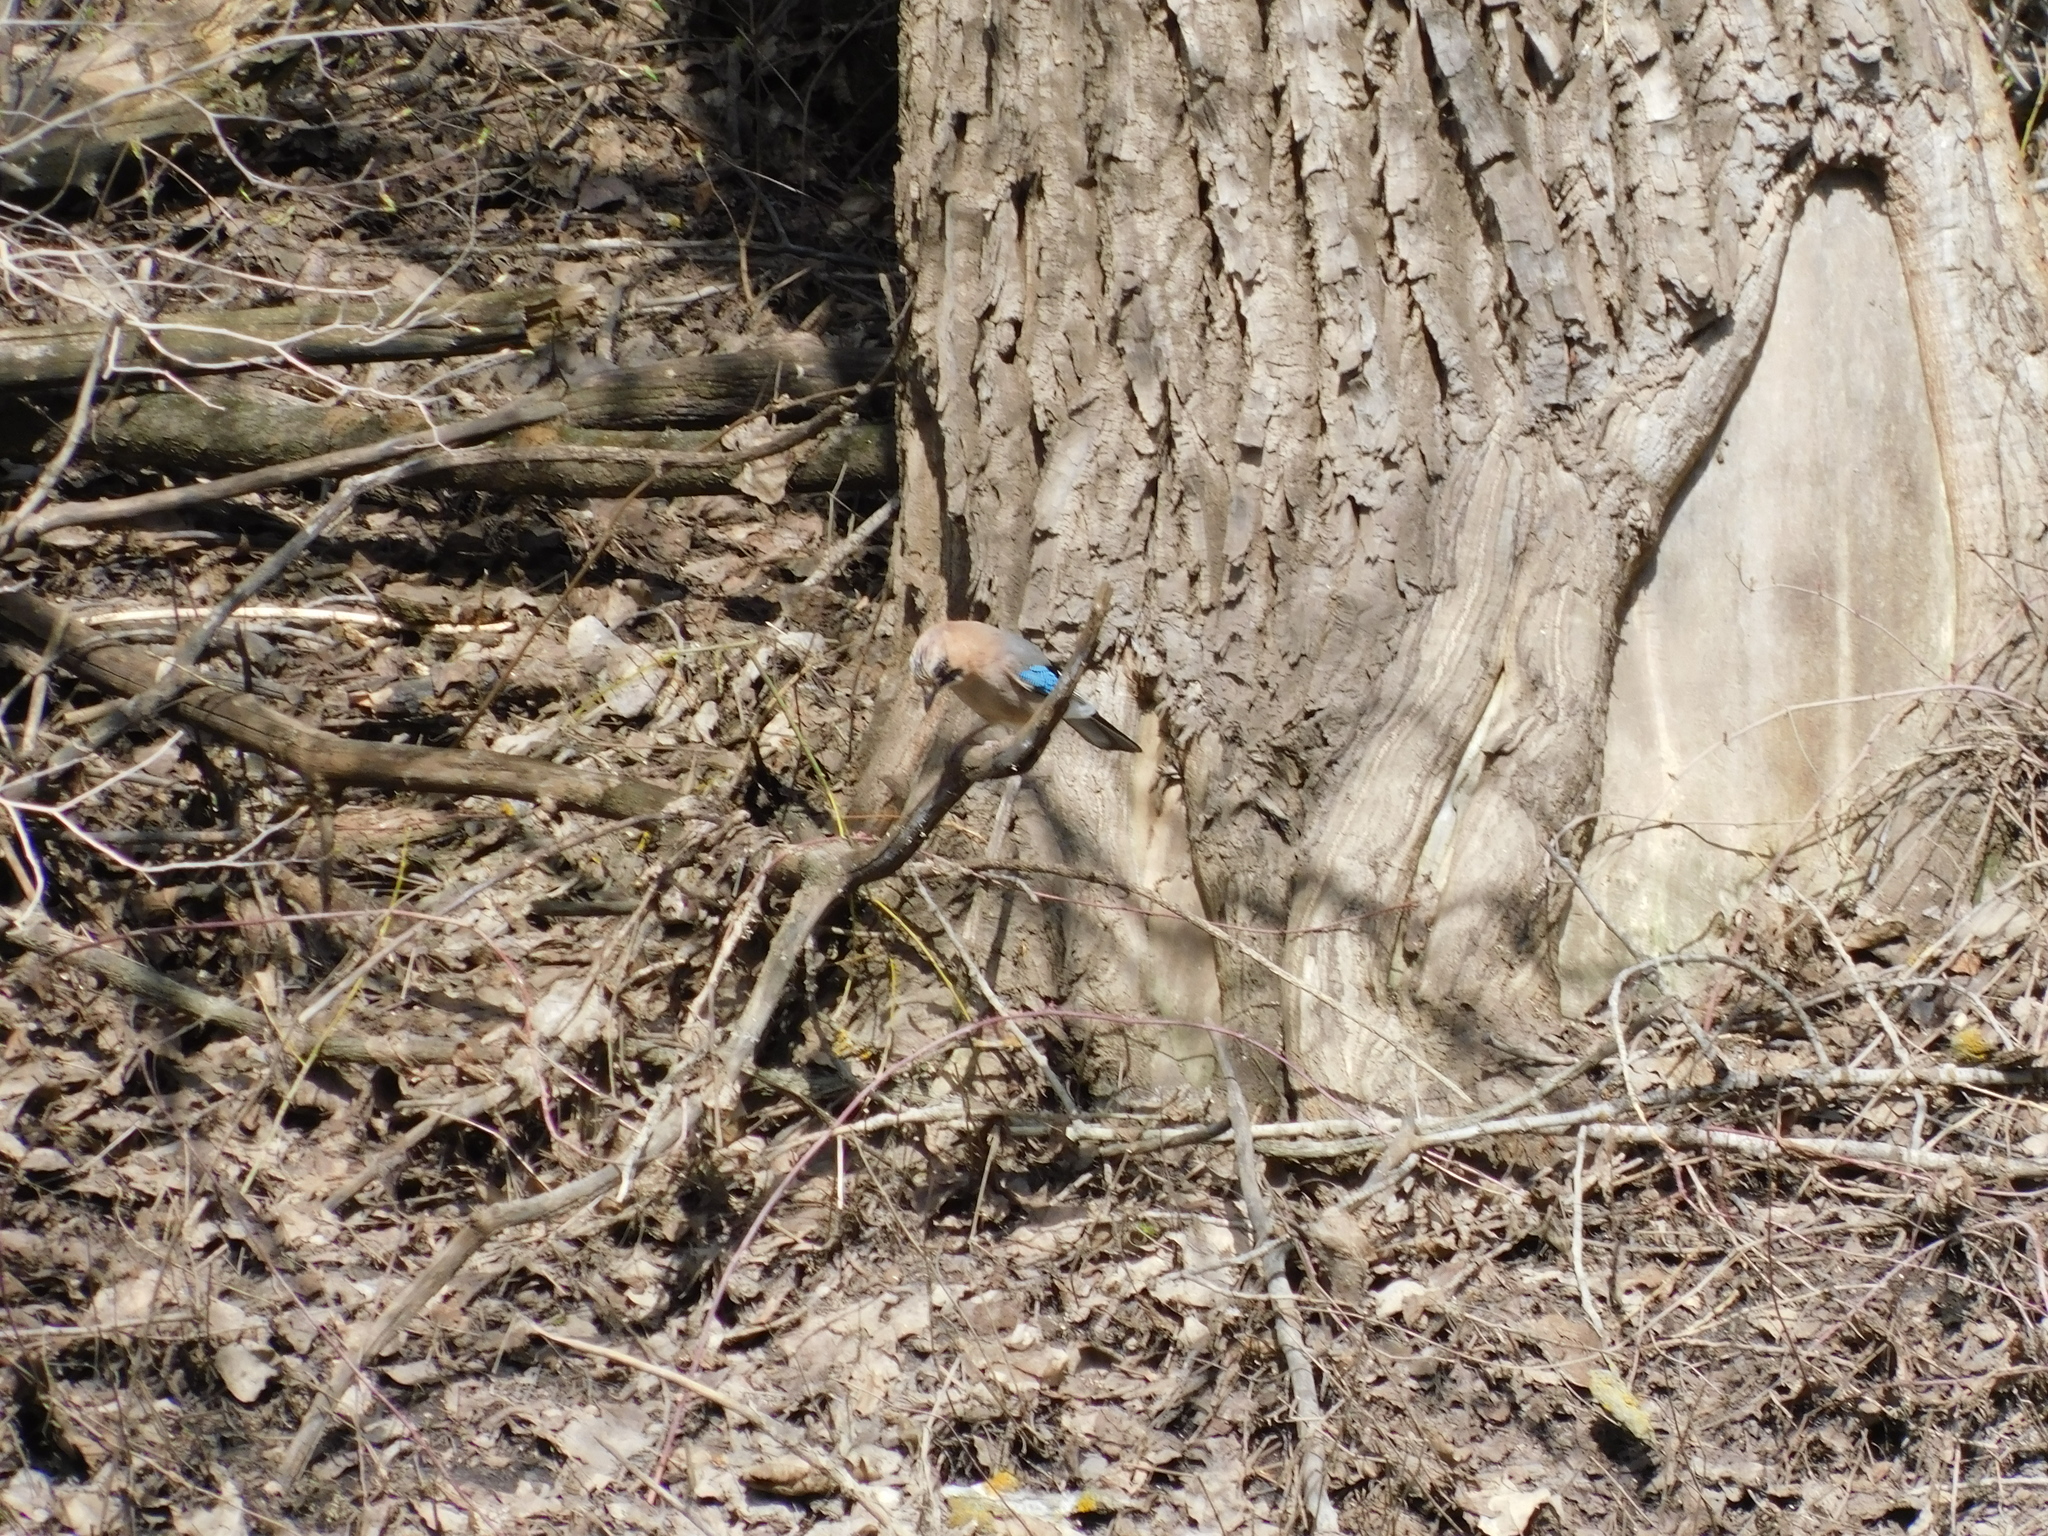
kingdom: Animalia
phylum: Chordata
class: Aves
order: Passeriformes
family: Corvidae
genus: Garrulus
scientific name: Garrulus glandarius
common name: Eurasian jay
